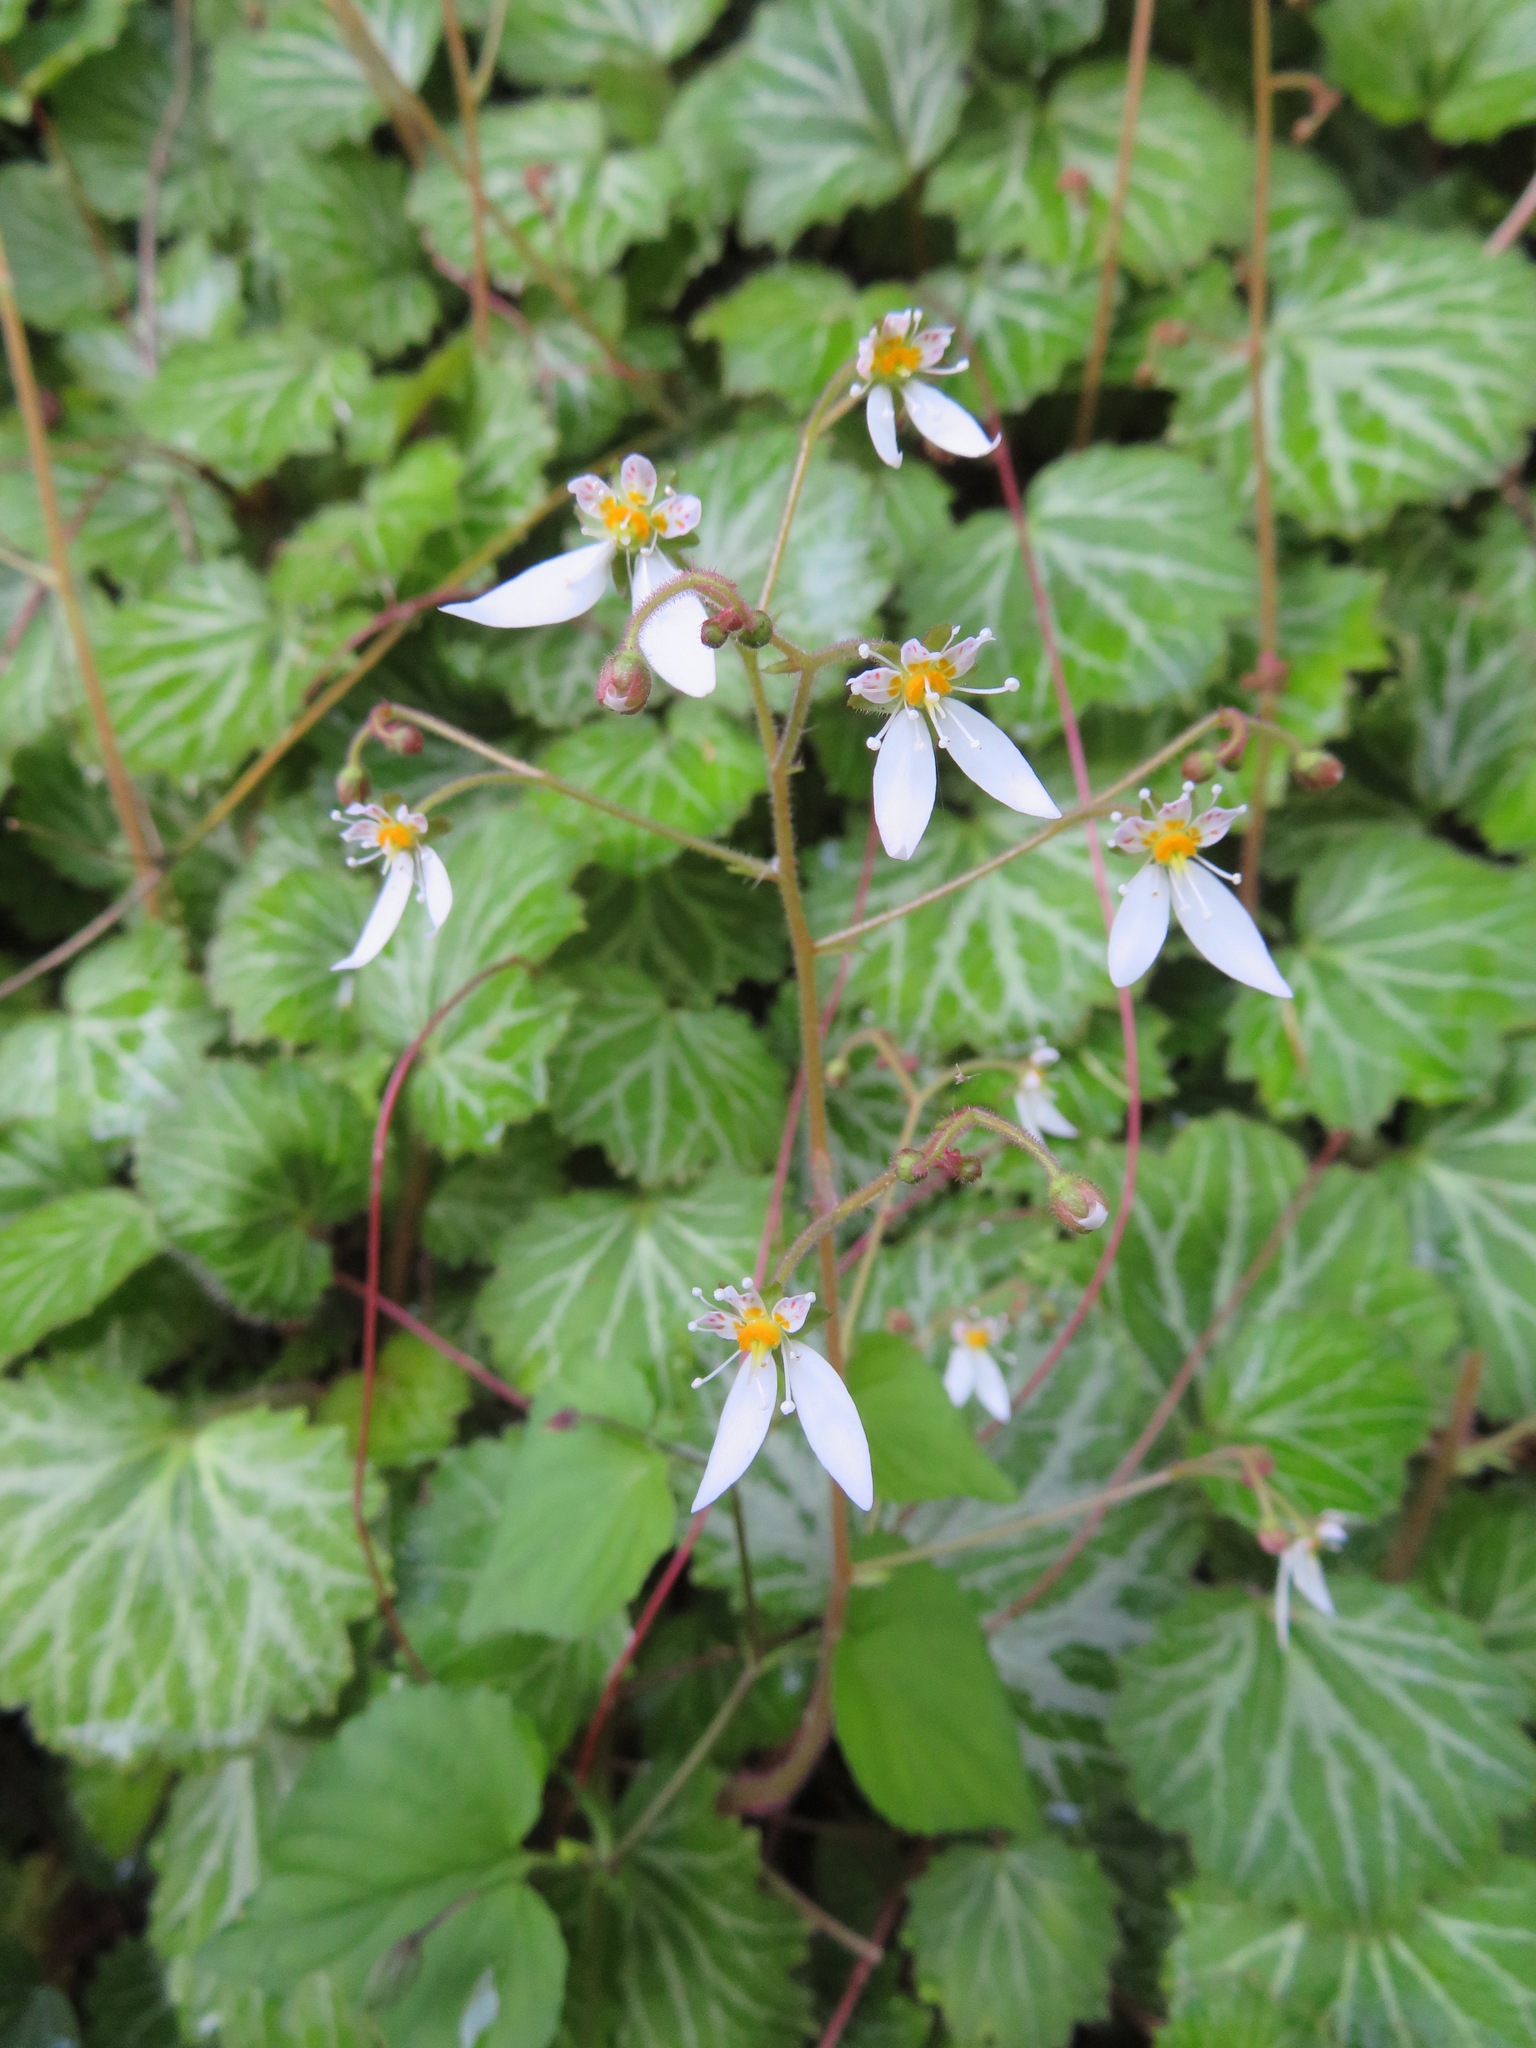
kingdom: Plantae
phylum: Tracheophyta
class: Magnoliopsida
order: Saxifragales
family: Saxifragaceae
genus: Saxifraga
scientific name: Saxifraga stolonifera
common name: Creeping saxifrage
